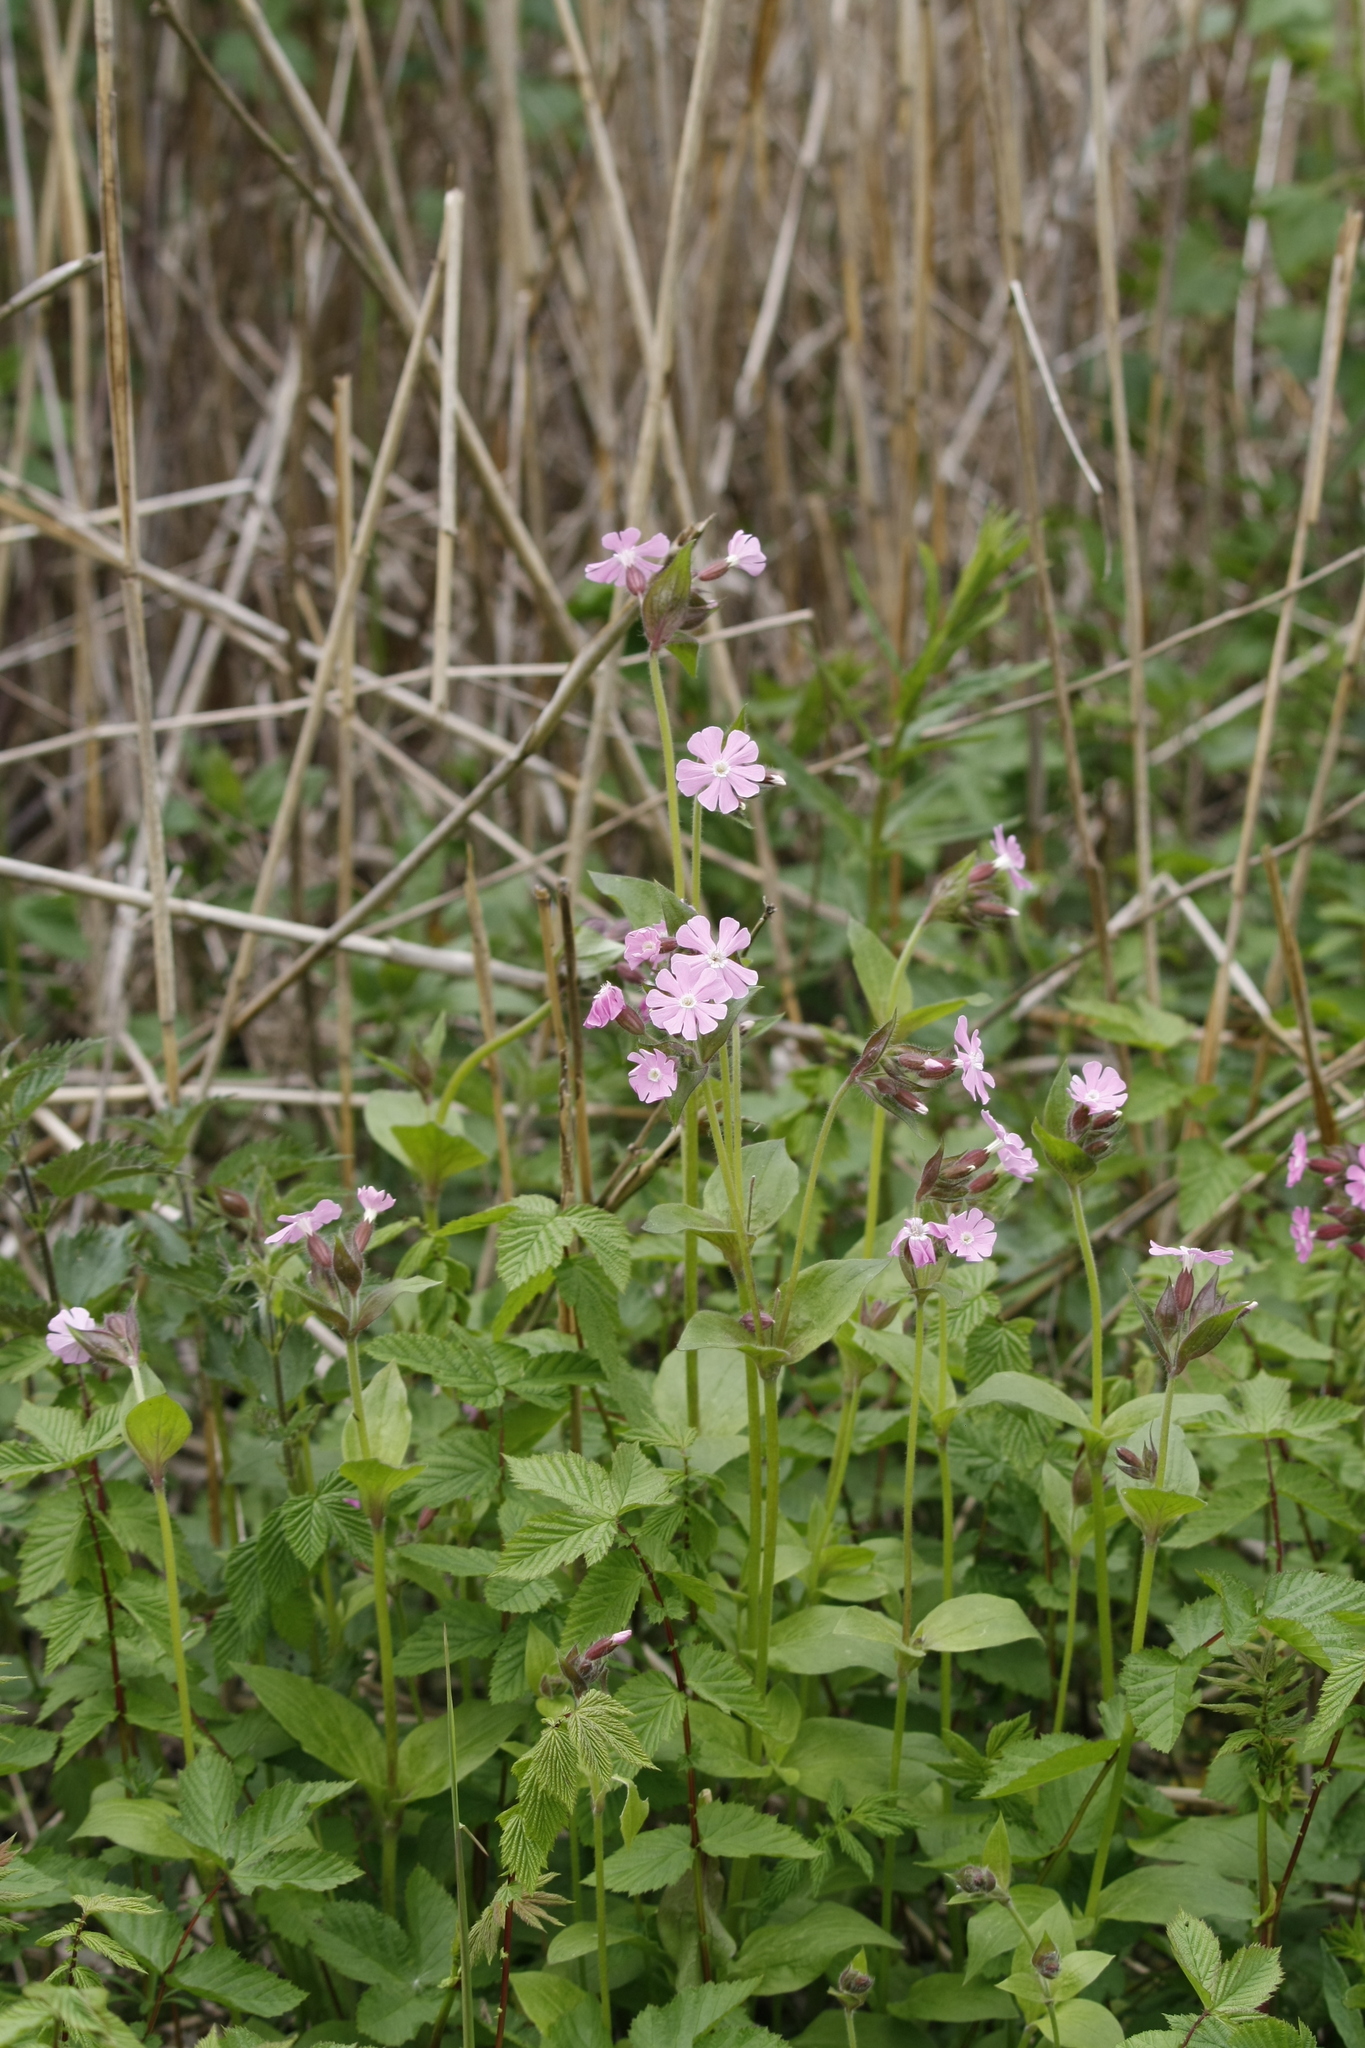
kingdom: Plantae
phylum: Tracheophyta
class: Magnoliopsida
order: Caryophyllales
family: Caryophyllaceae
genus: Silene
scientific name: Silene dioica
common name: Red campion
